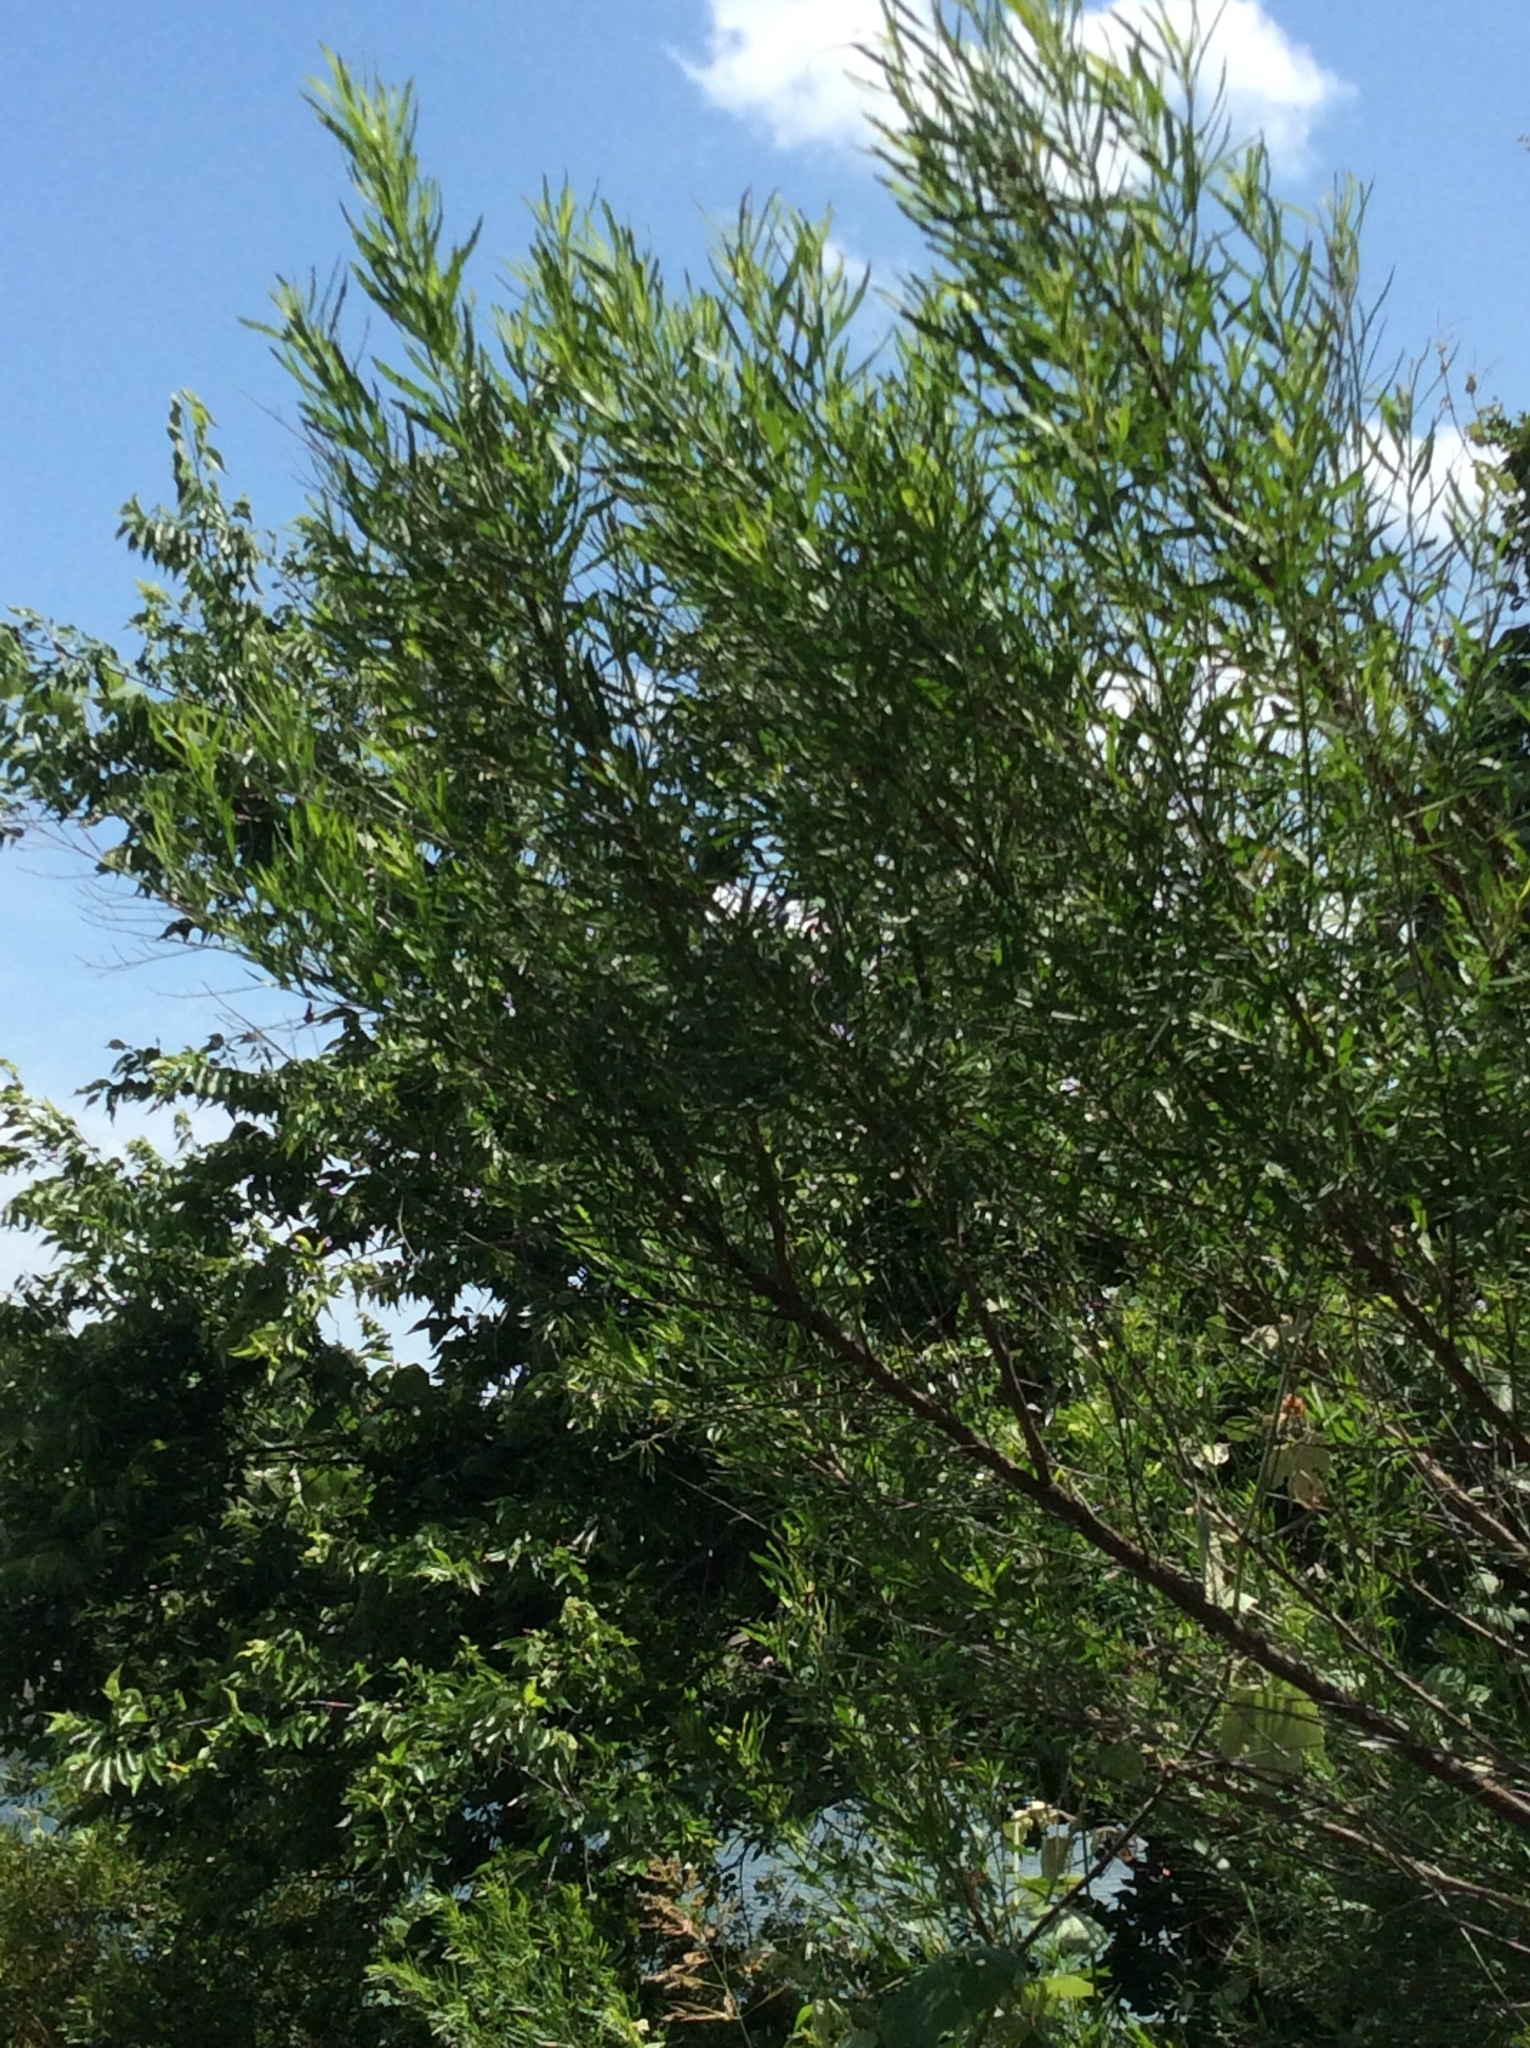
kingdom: Plantae
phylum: Tracheophyta
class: Magnoliopsida
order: Malpighiales
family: Salicaceae
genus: Salix
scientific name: Salix nigra
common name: Black willow
